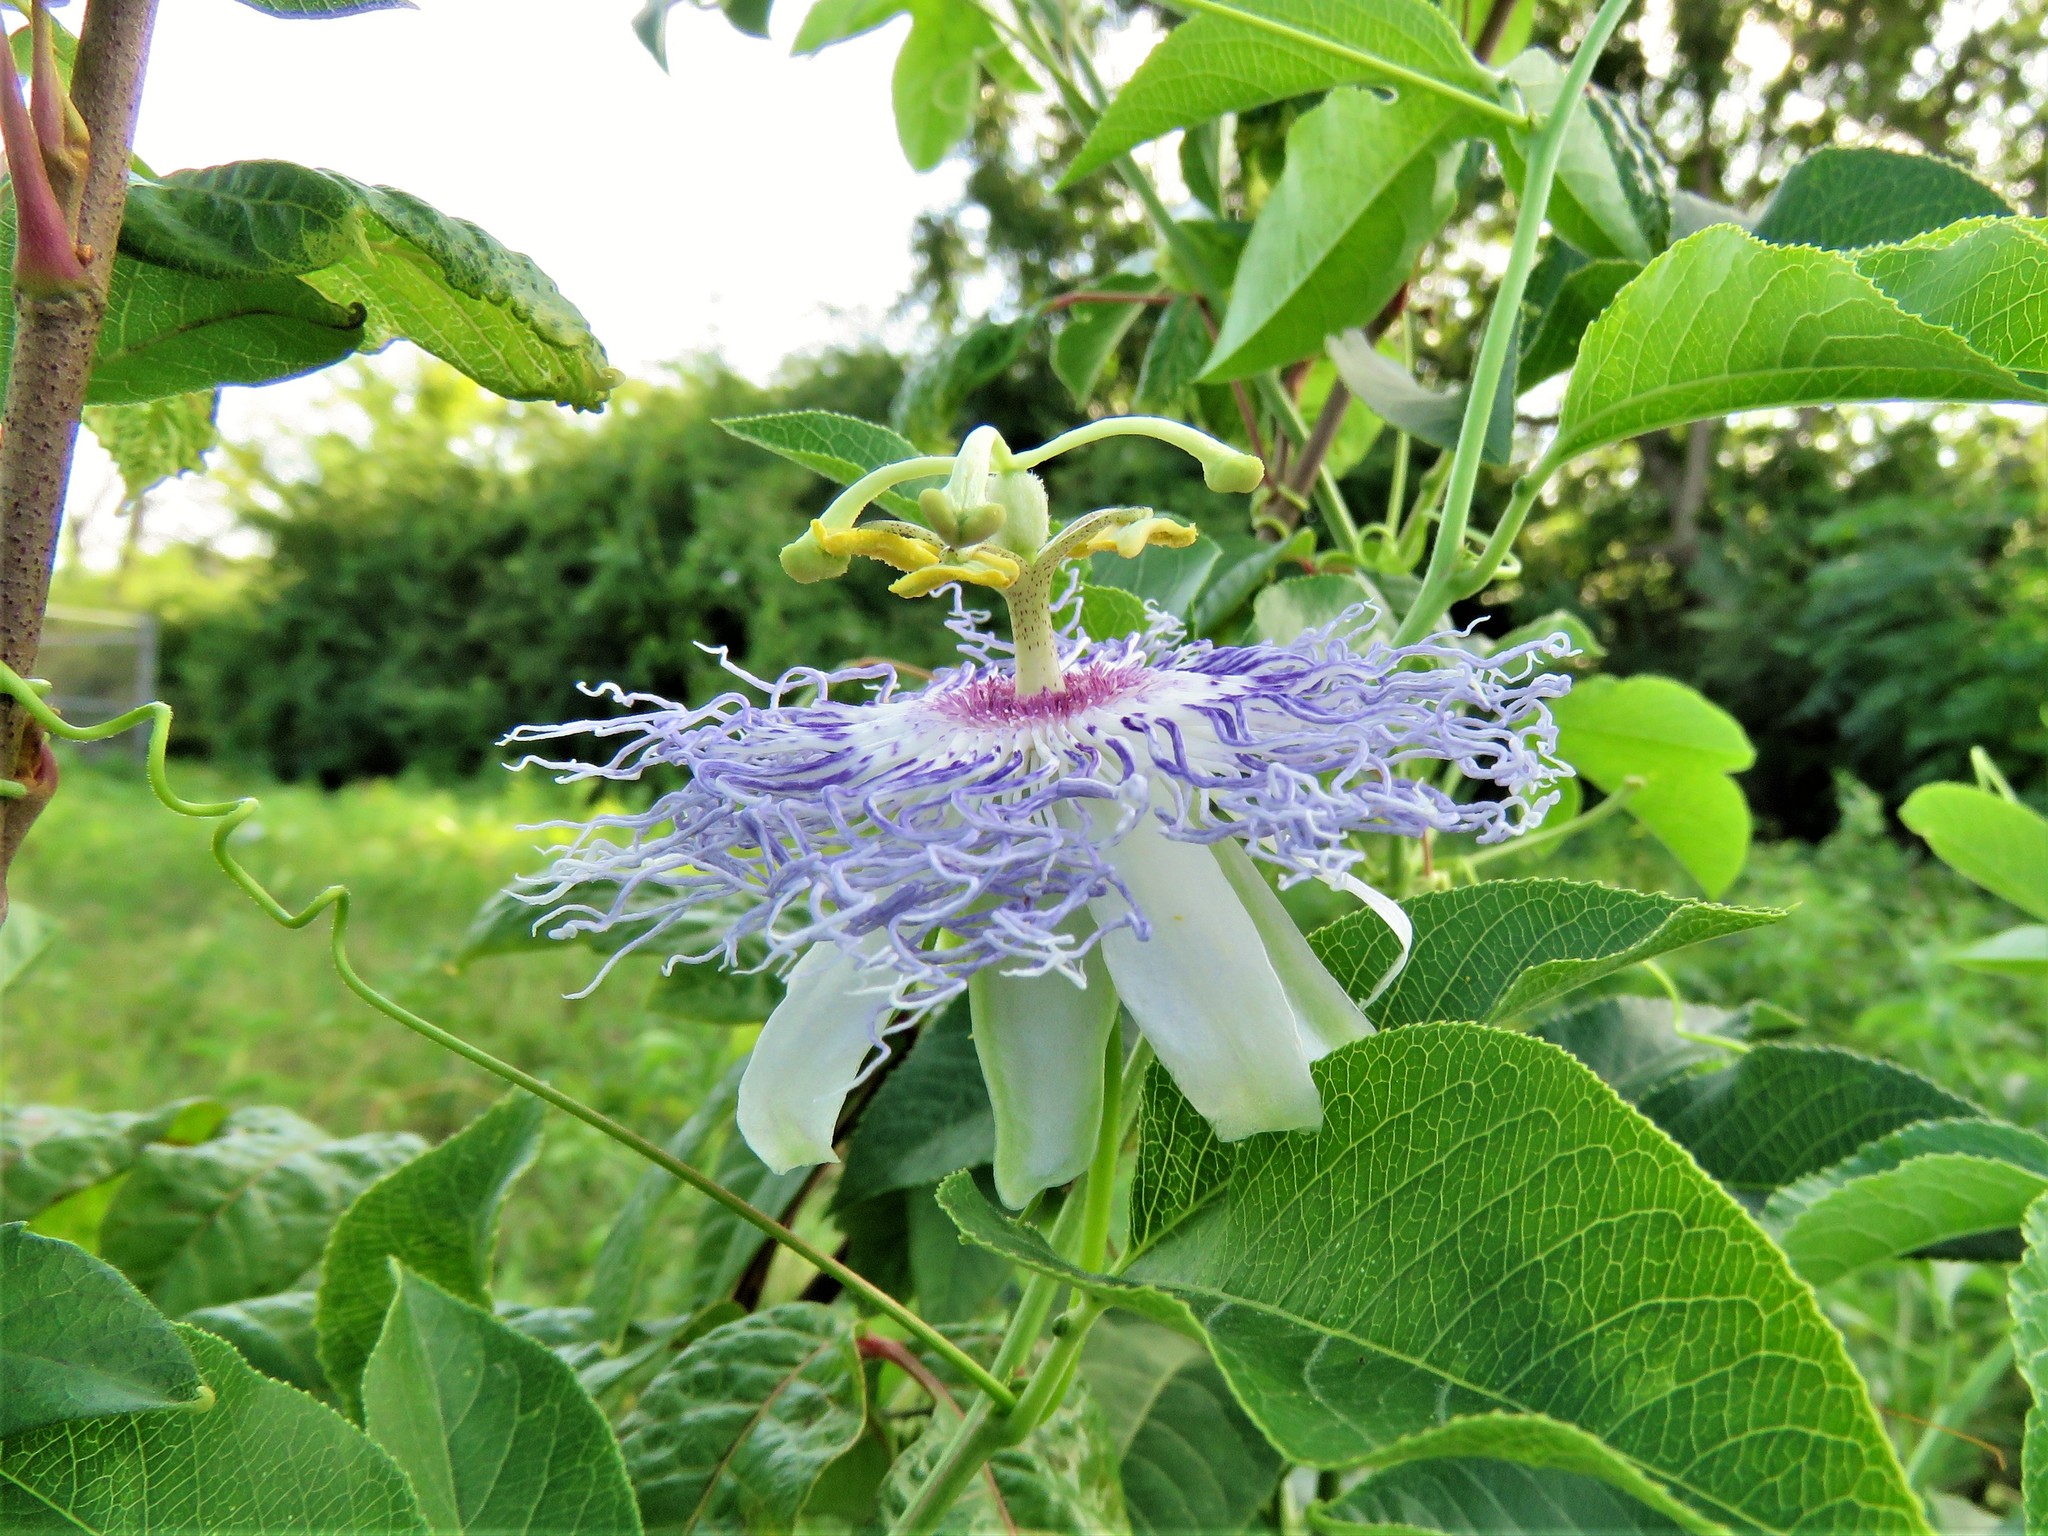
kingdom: Plantae
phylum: Tracheophyta
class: Magnoliopsida
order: Malpighiales
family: Passifloraceae
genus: Passiflora
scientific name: Passiflora incarnata
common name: Apricot-vine
